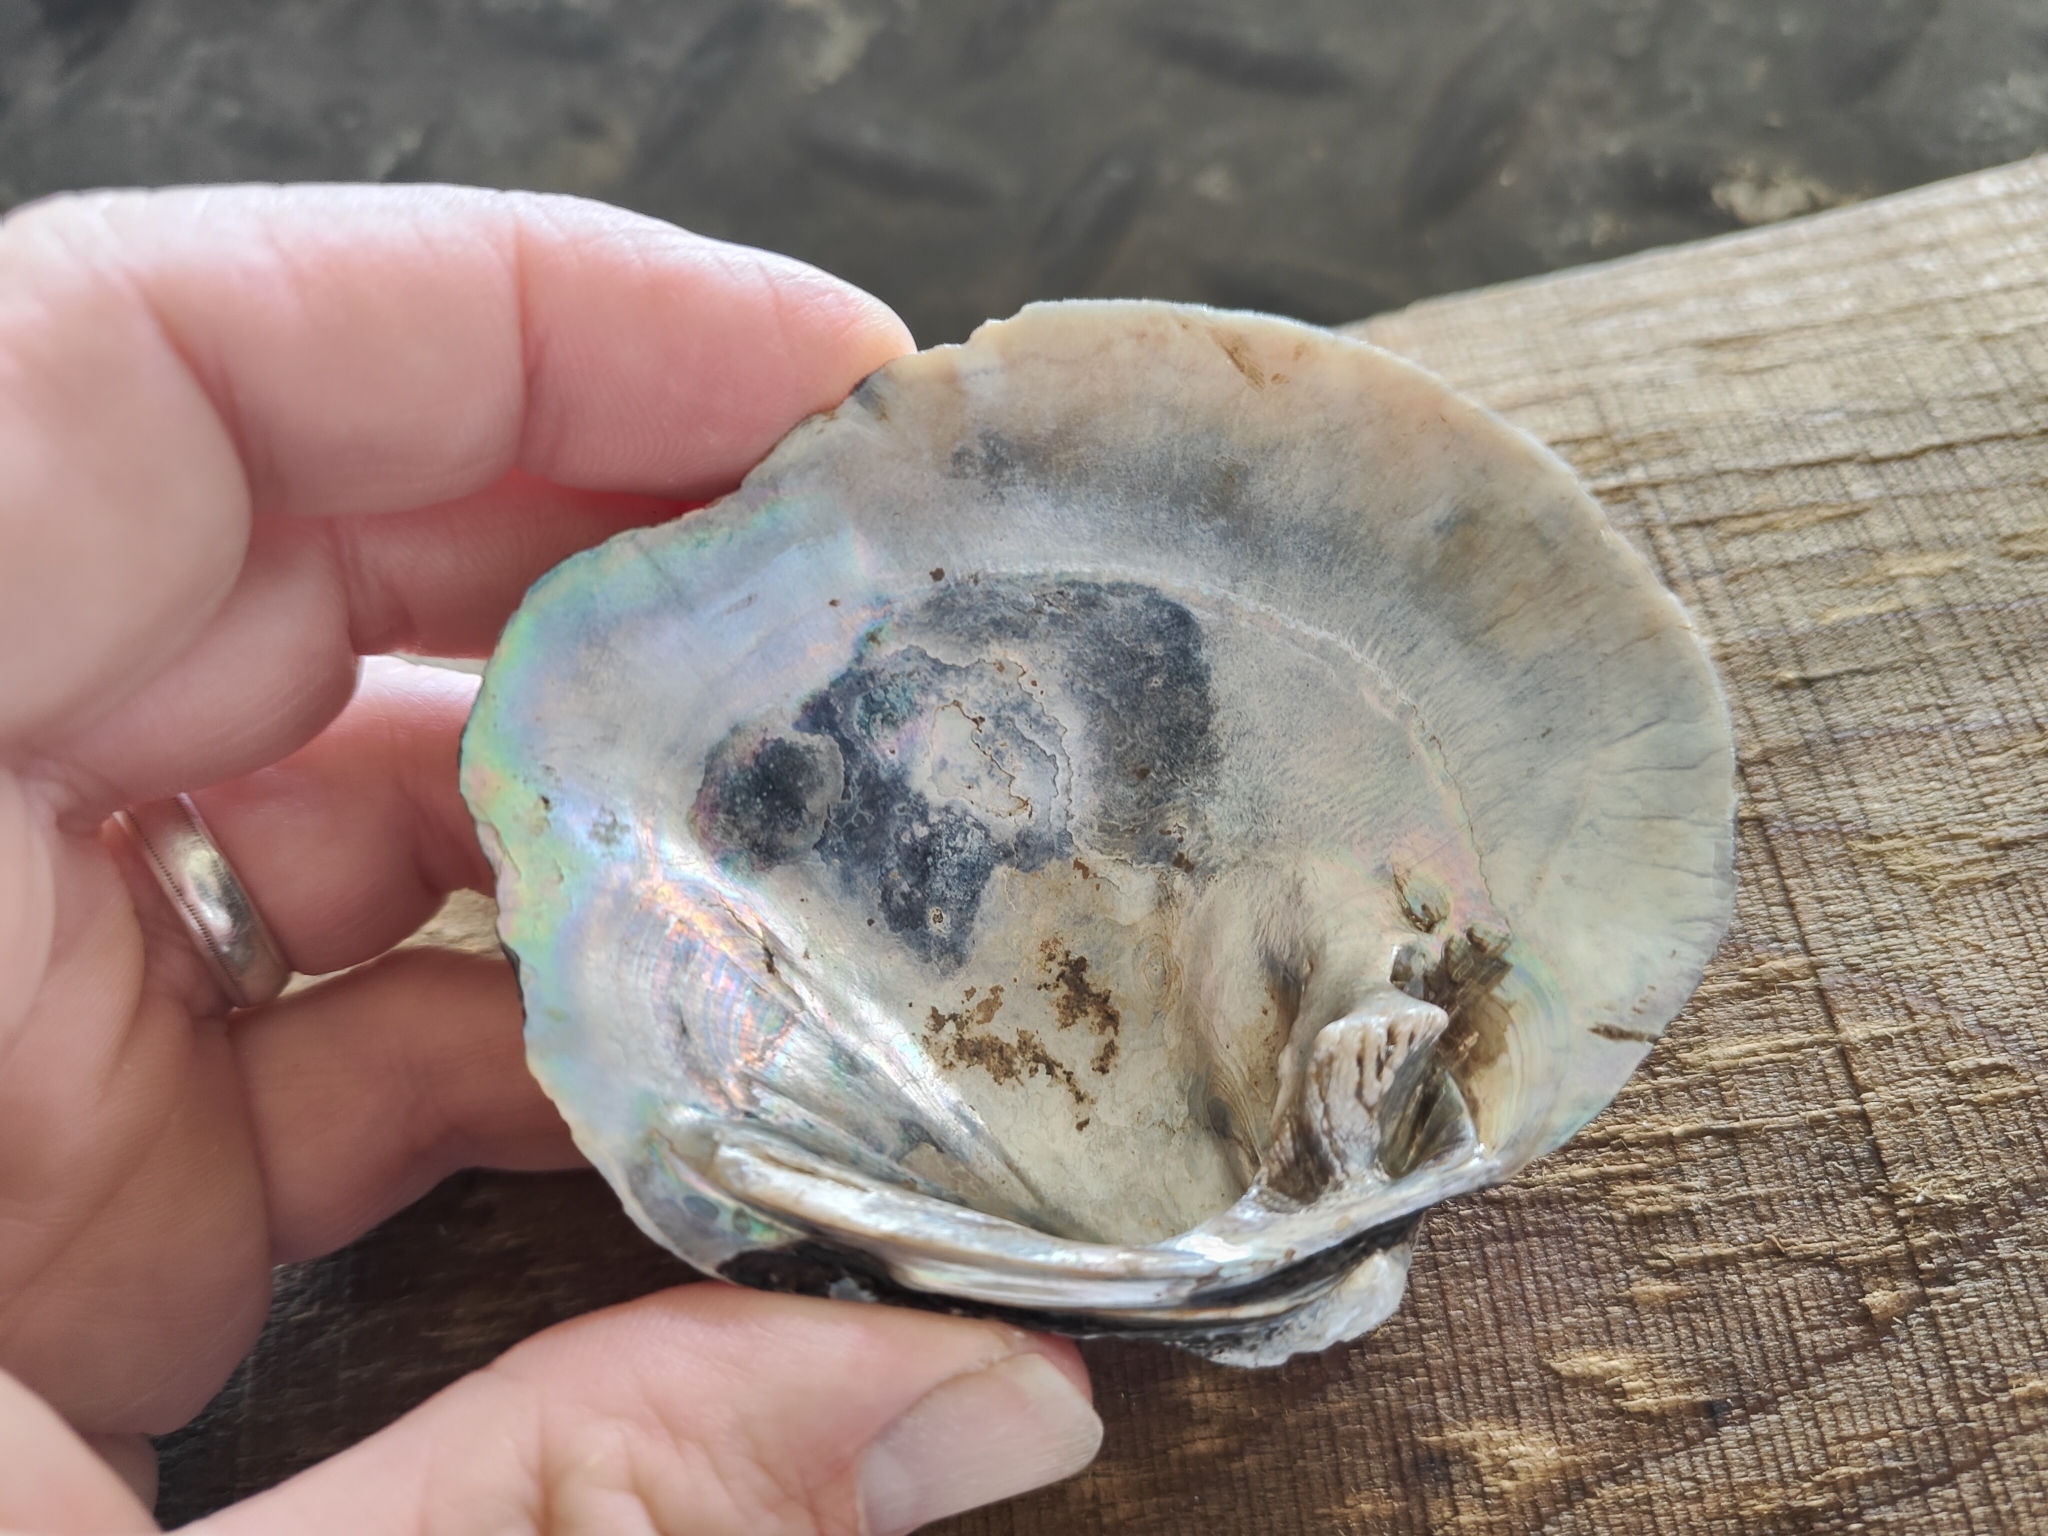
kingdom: Animalia
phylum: Mollusca
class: Bivalvia
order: Unionida
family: Unionidae
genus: Quadrula
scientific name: Quadrula quadrula
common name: Mapleleaf
